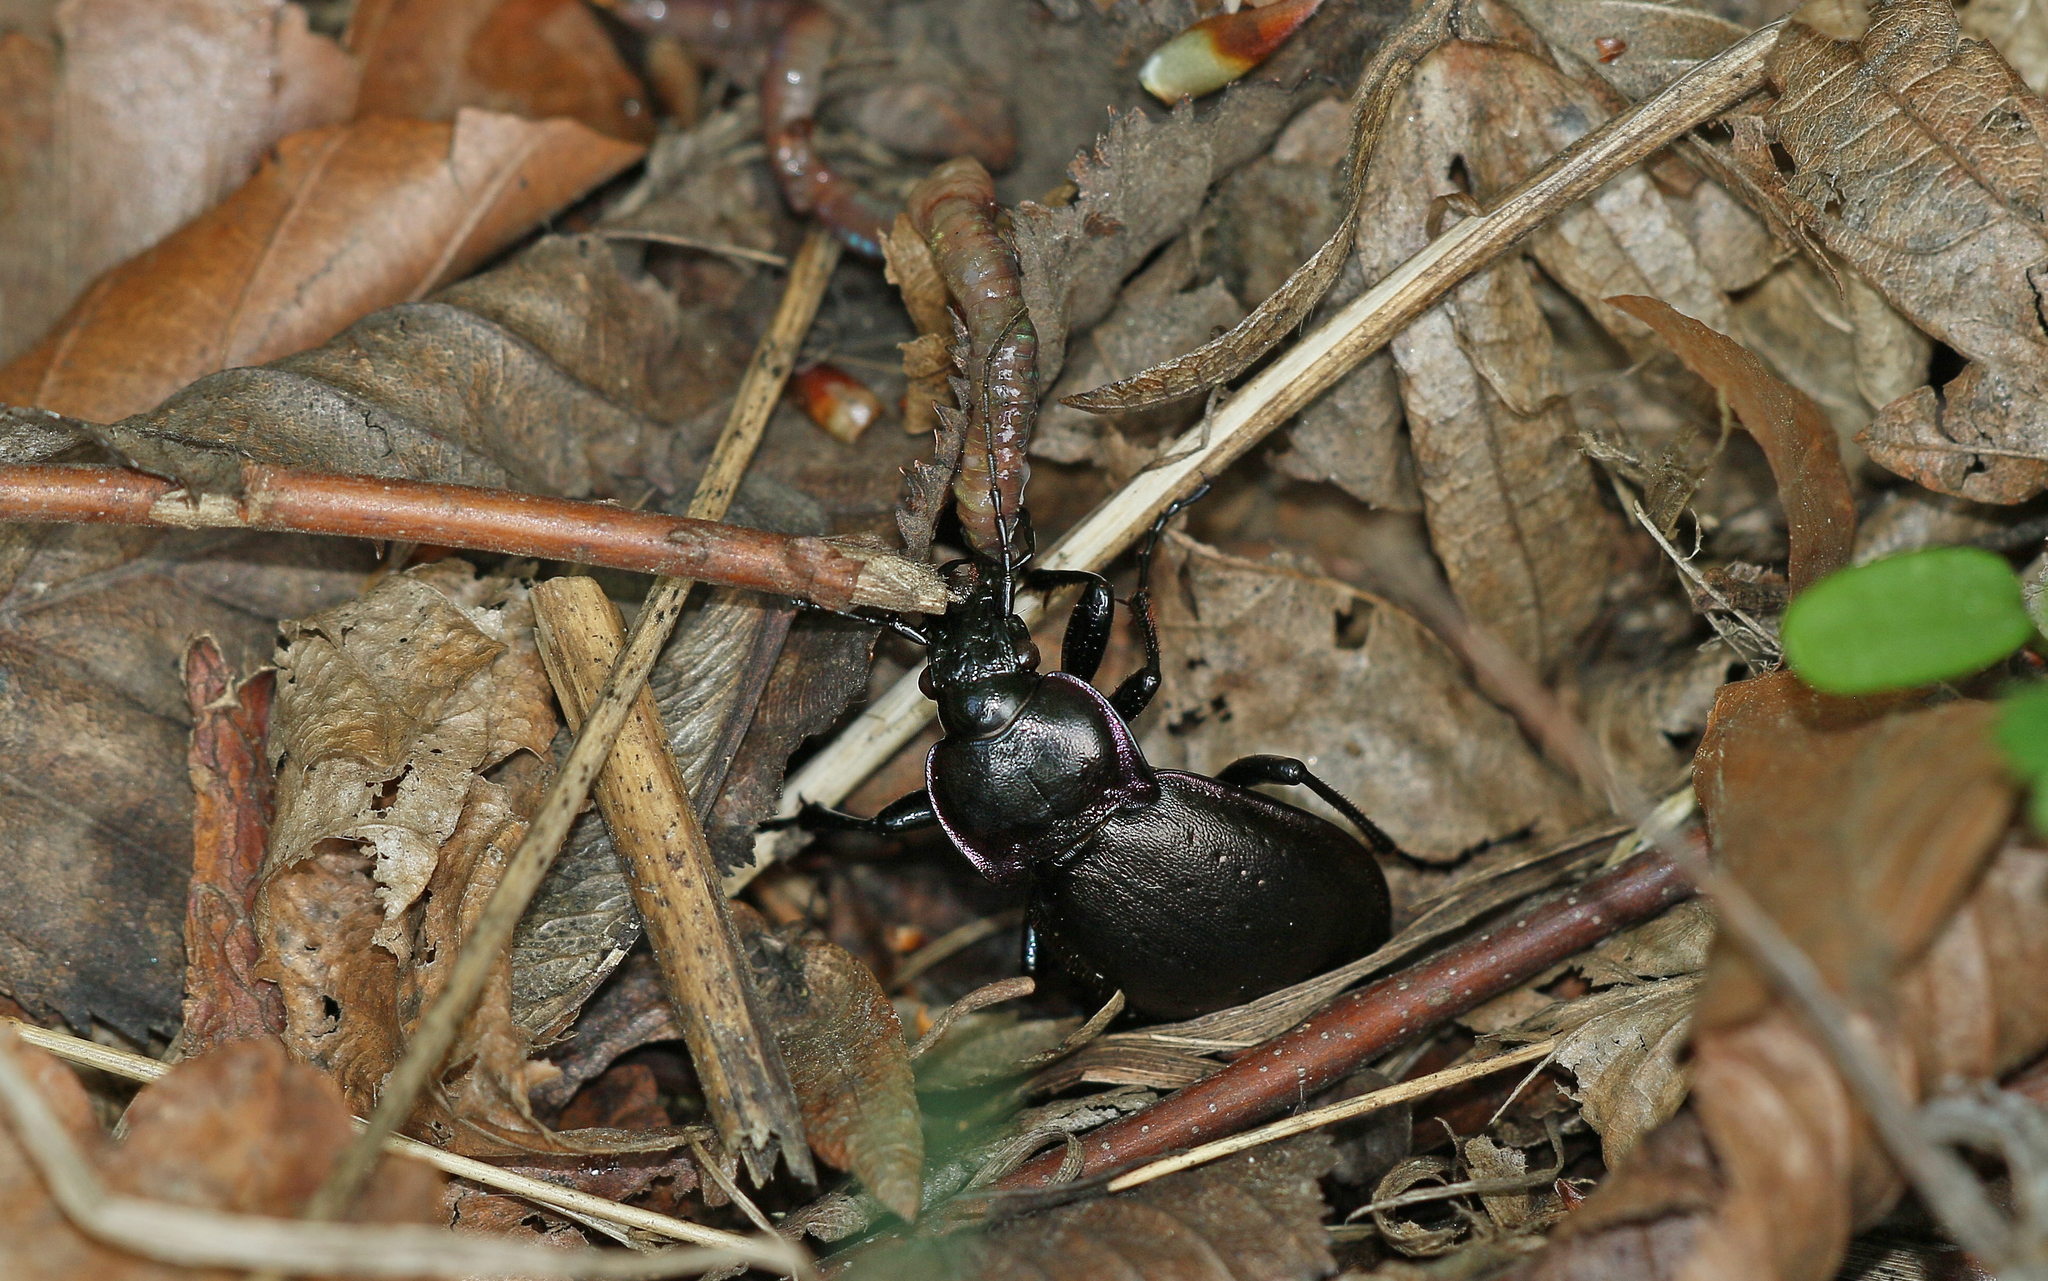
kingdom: Animalia
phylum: Arthropoda
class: Insecta
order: Coleoptera
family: Carabidae
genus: Carabus
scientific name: Carabus nemoralis
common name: European ground beetle
